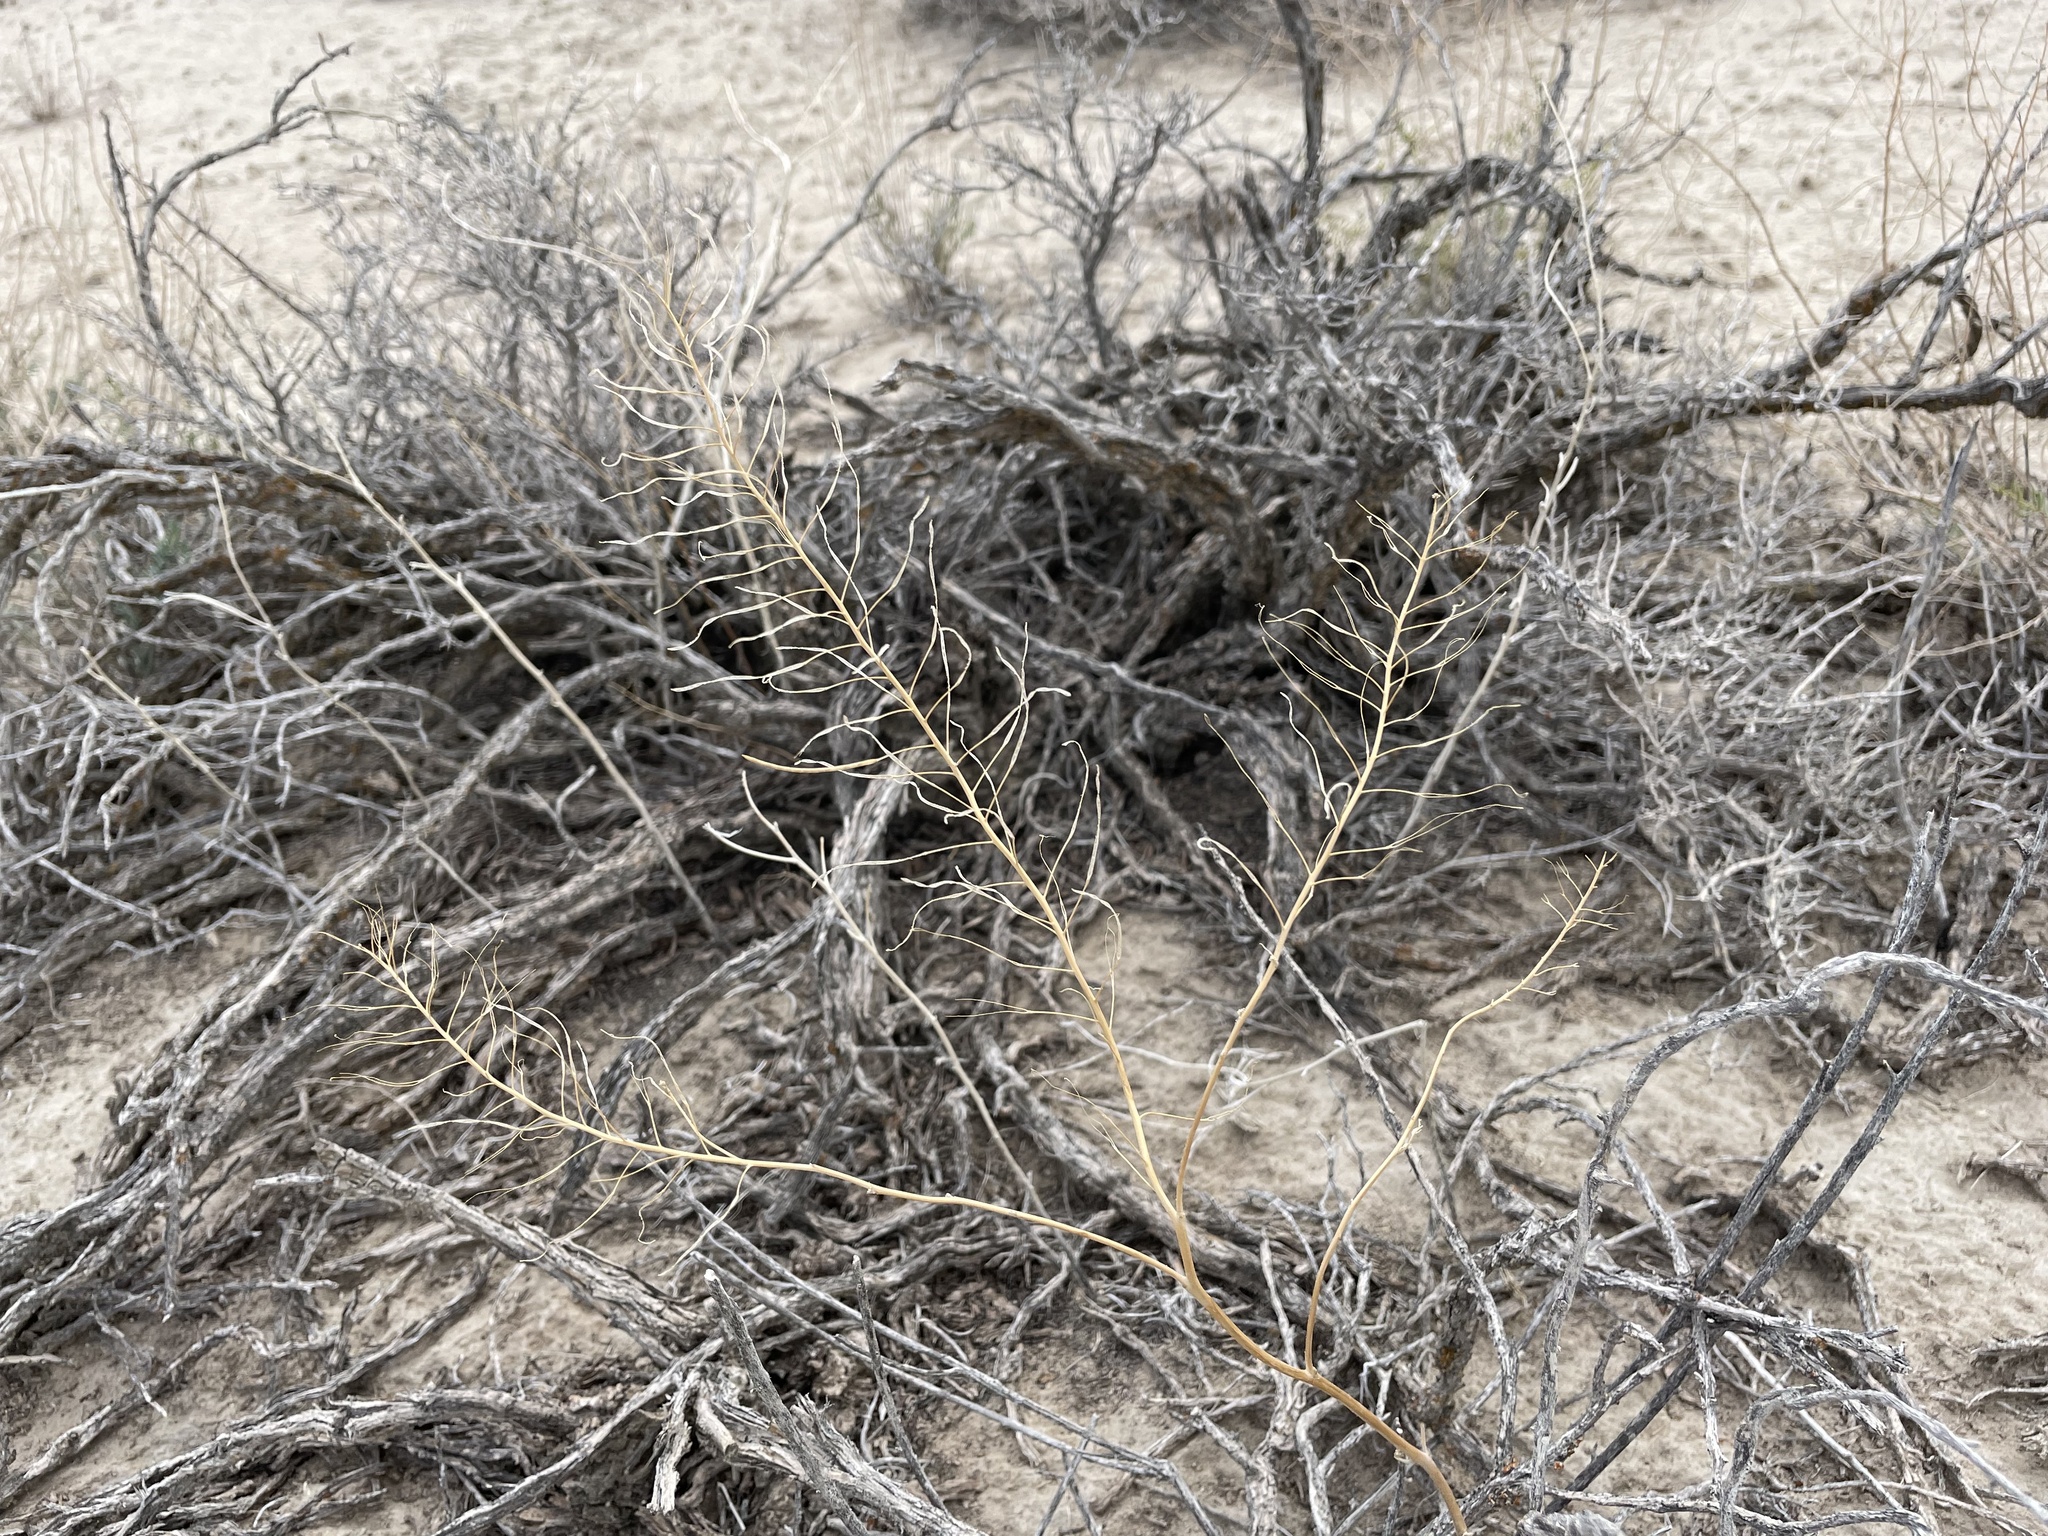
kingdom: Plantae
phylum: Tracheophyta
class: Magnoliopsida
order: Brassicales
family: Brassicaceae
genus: Descurainia
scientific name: Descurainia sophia
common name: Flixweed
